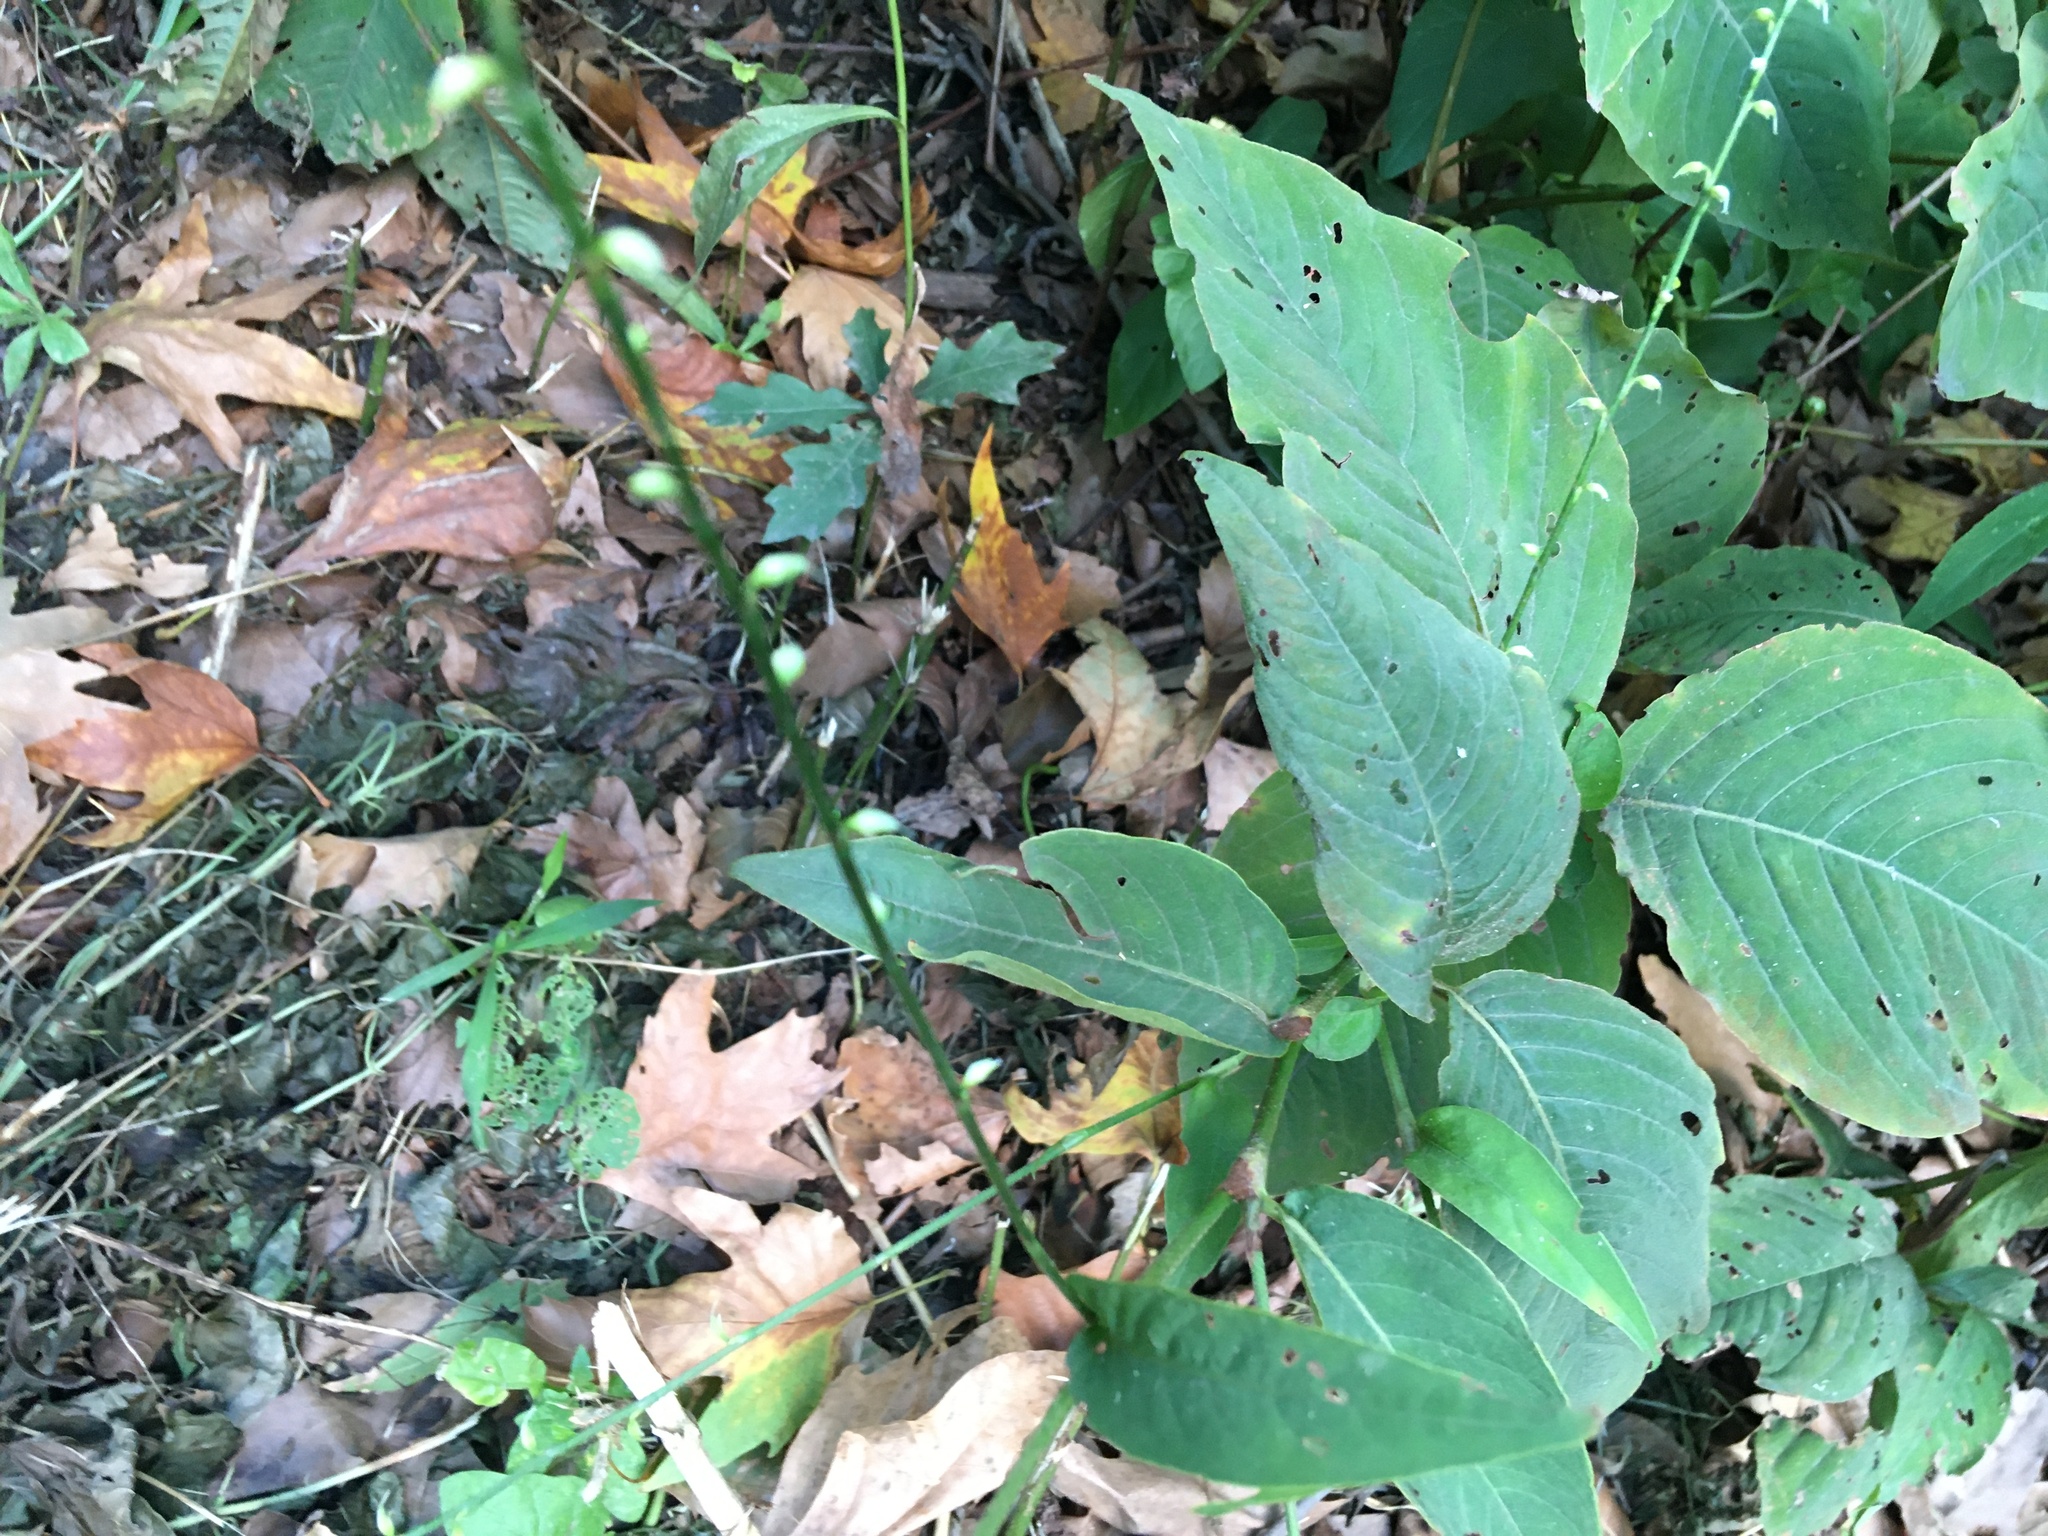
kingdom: Plantae
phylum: Tracheophyta
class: Magnoliopsida
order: Caryophyllales
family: Polygonaceae
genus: Persicaria
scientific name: Persicaria virginiana
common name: Jumpseed
